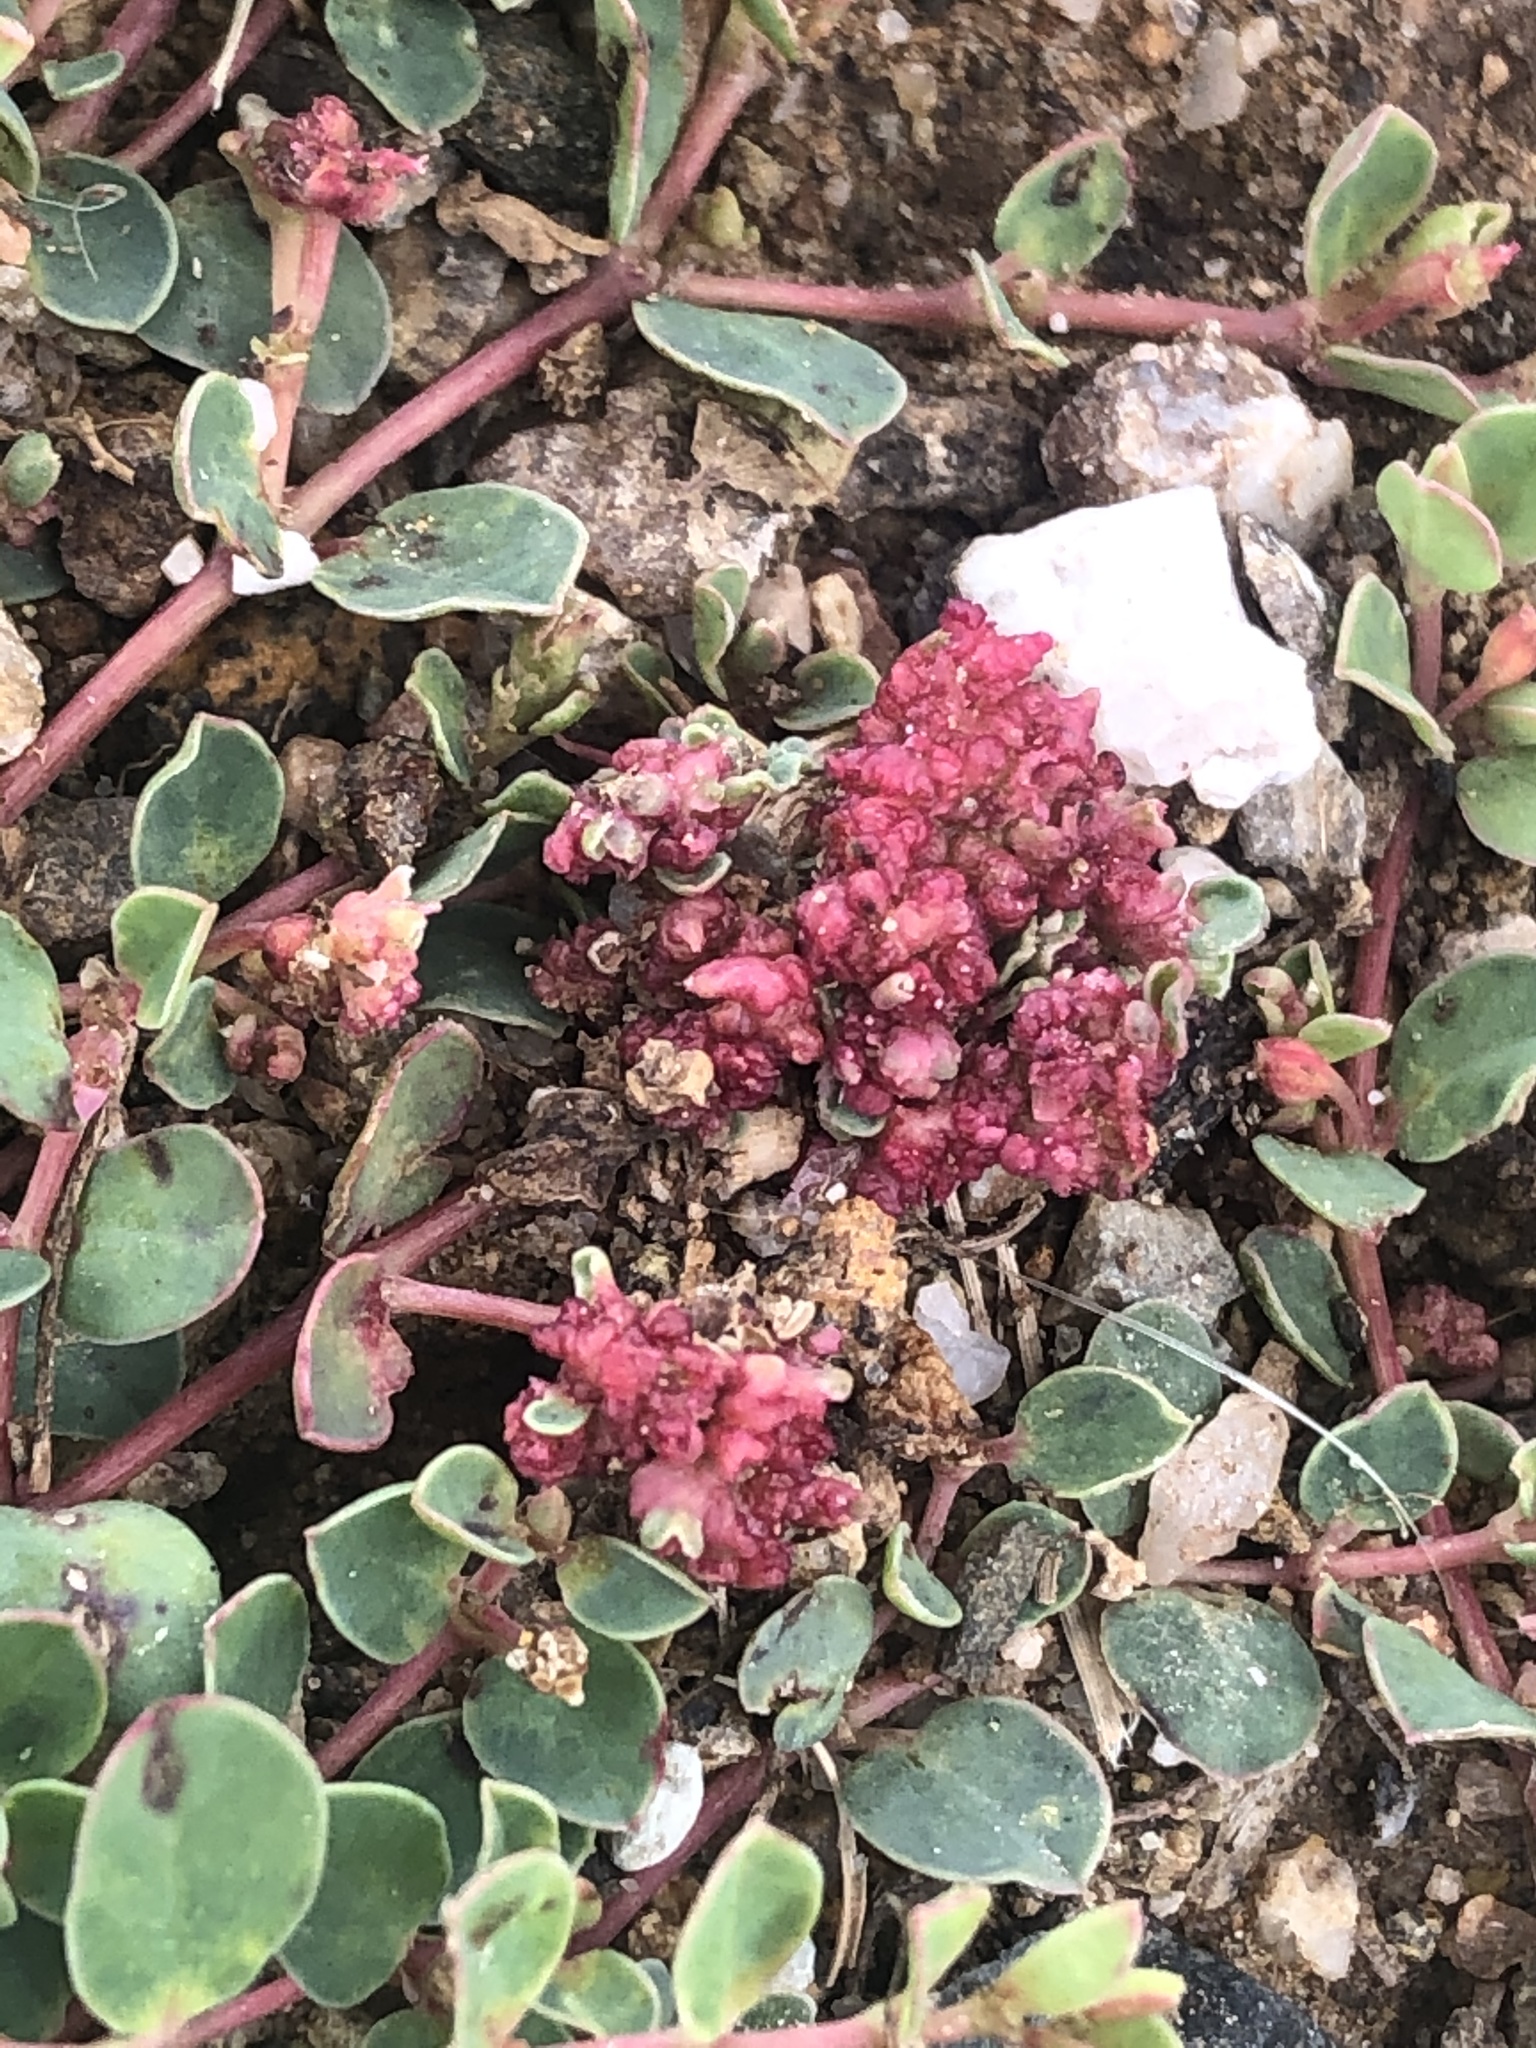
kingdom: Bacteria
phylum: Firmicutes
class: Bacilli
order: Acholeplasmatales
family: Acholeplasmataceae
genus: Phytoplasma
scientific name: Phytoplasma
